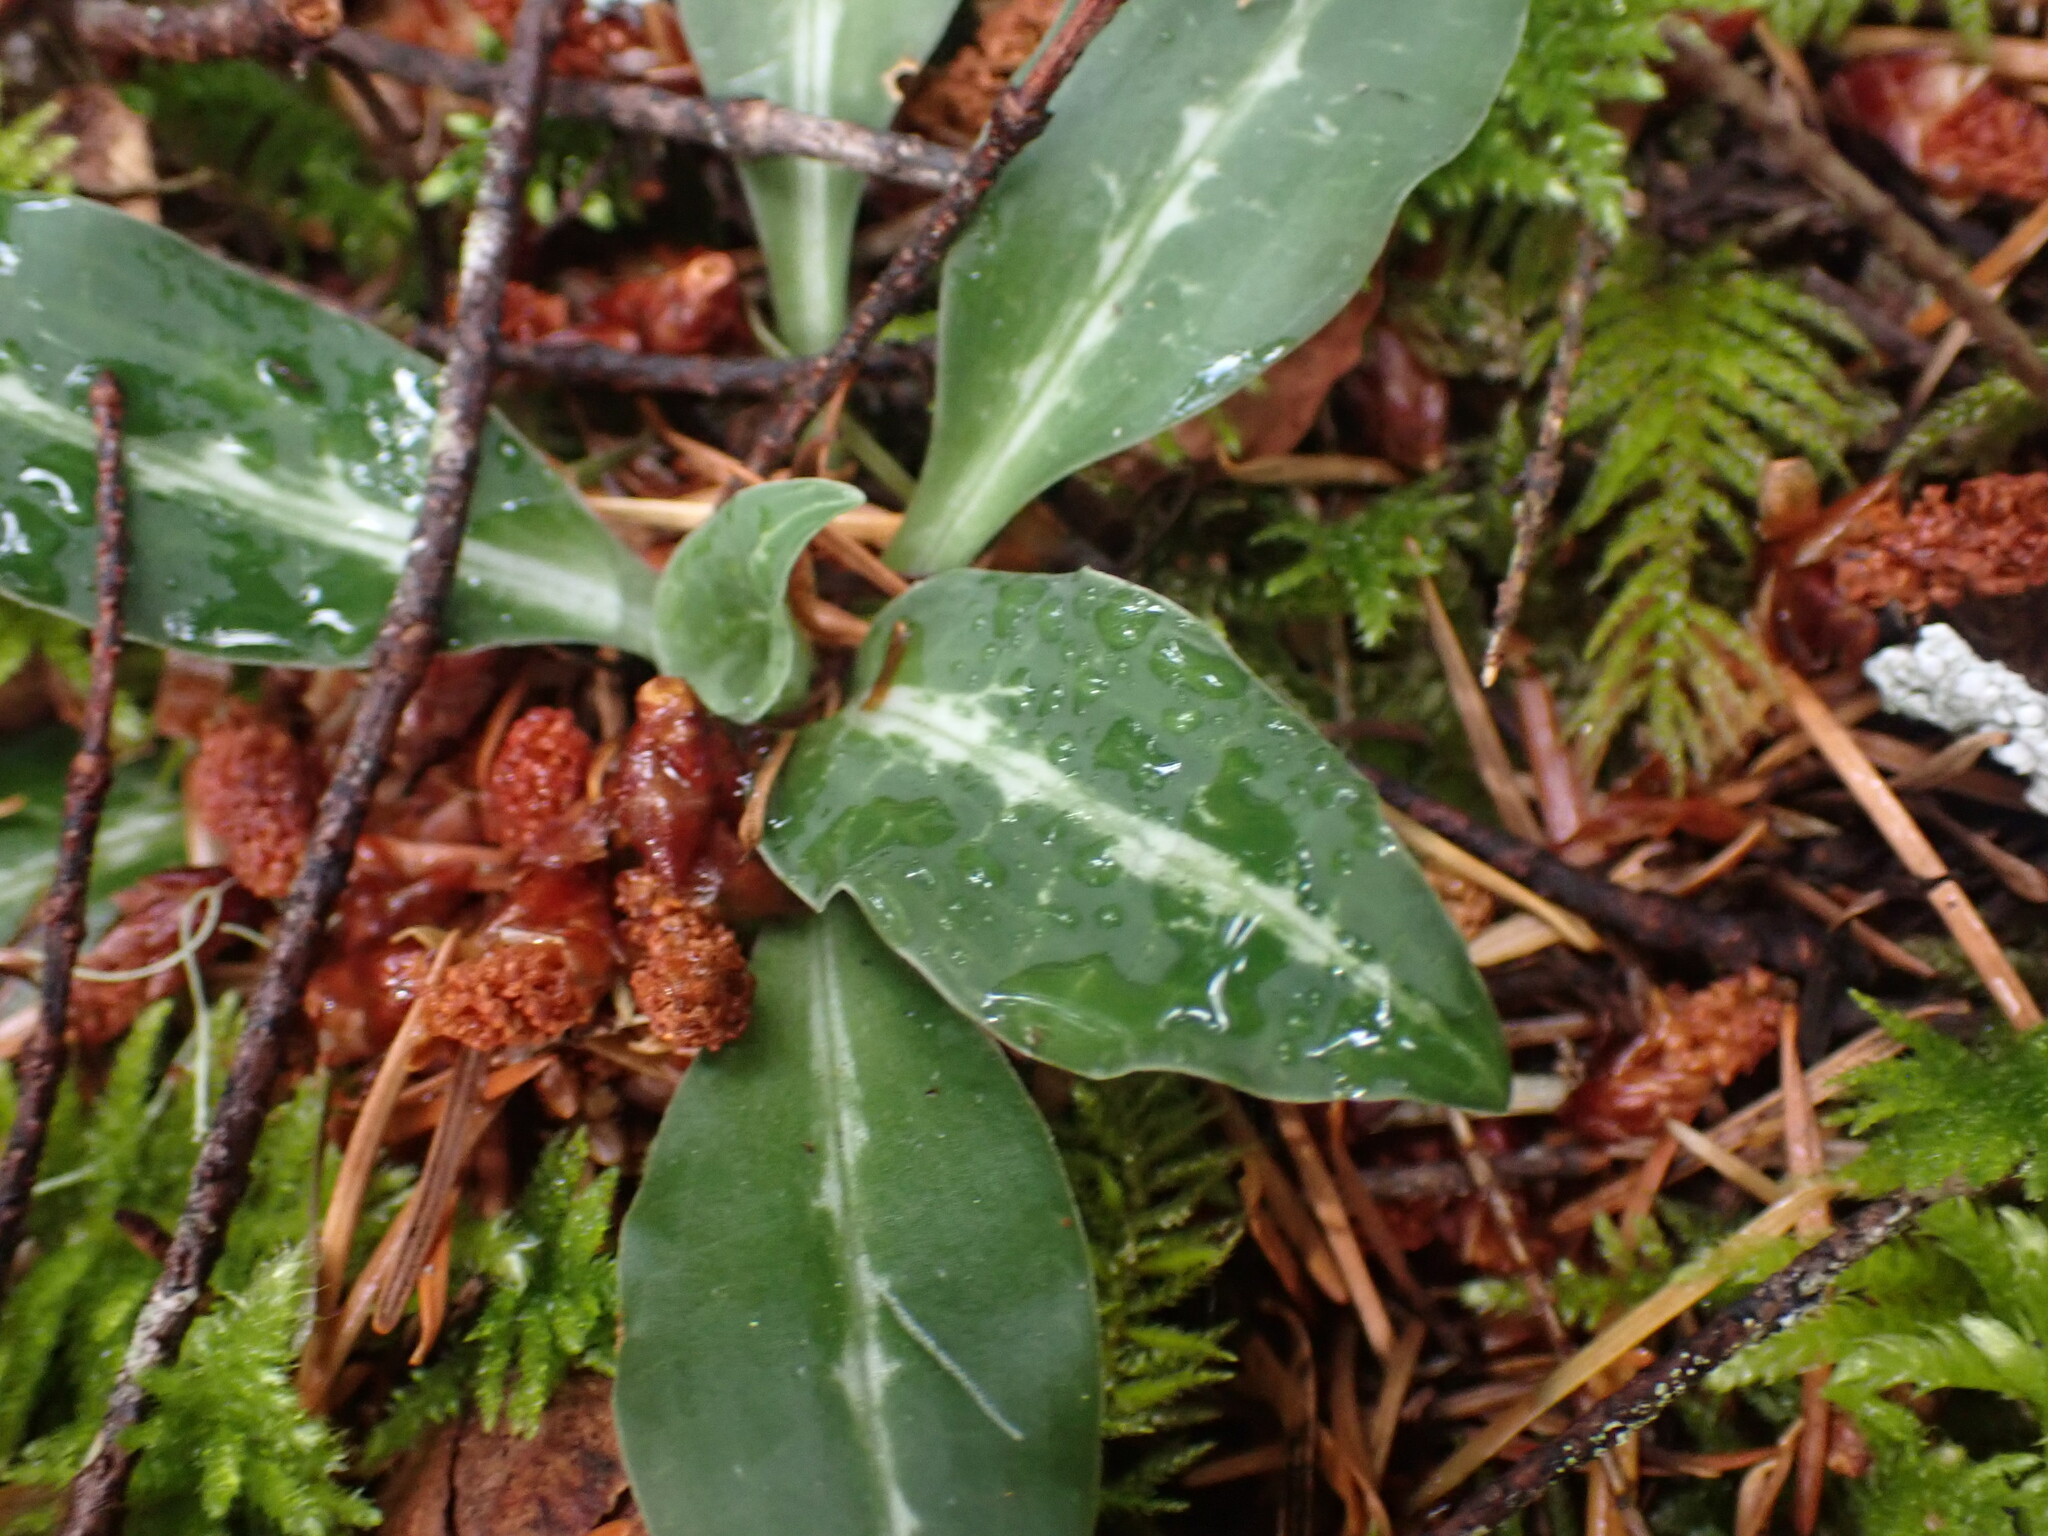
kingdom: Plantae
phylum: Tracheophyta
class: Liliopsida
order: Asparagales
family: Orchidaceae
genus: Goodyera
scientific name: Goodyera oblongifolia
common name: Giant rattlesnake-plantain
